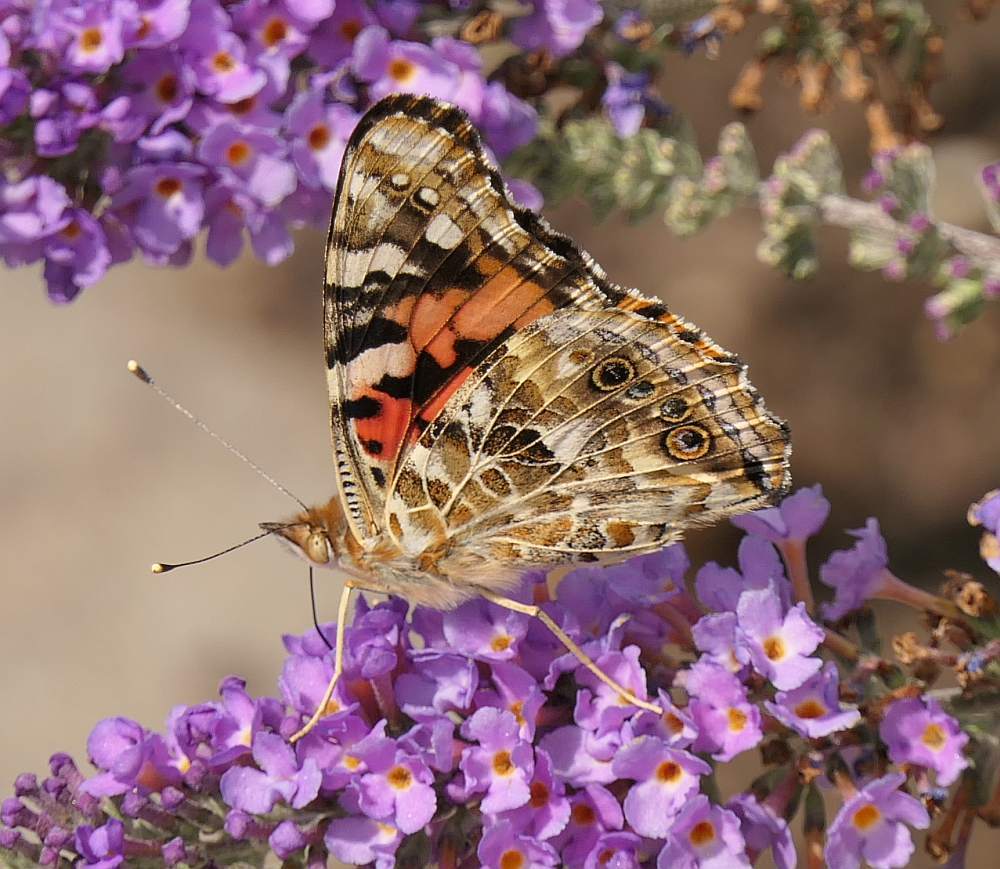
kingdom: Animalia
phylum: Arthropoda
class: Insecta
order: Lepidoptera
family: Nymphalidae
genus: Vanessa
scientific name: Vanessa cardui
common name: Painted lady
